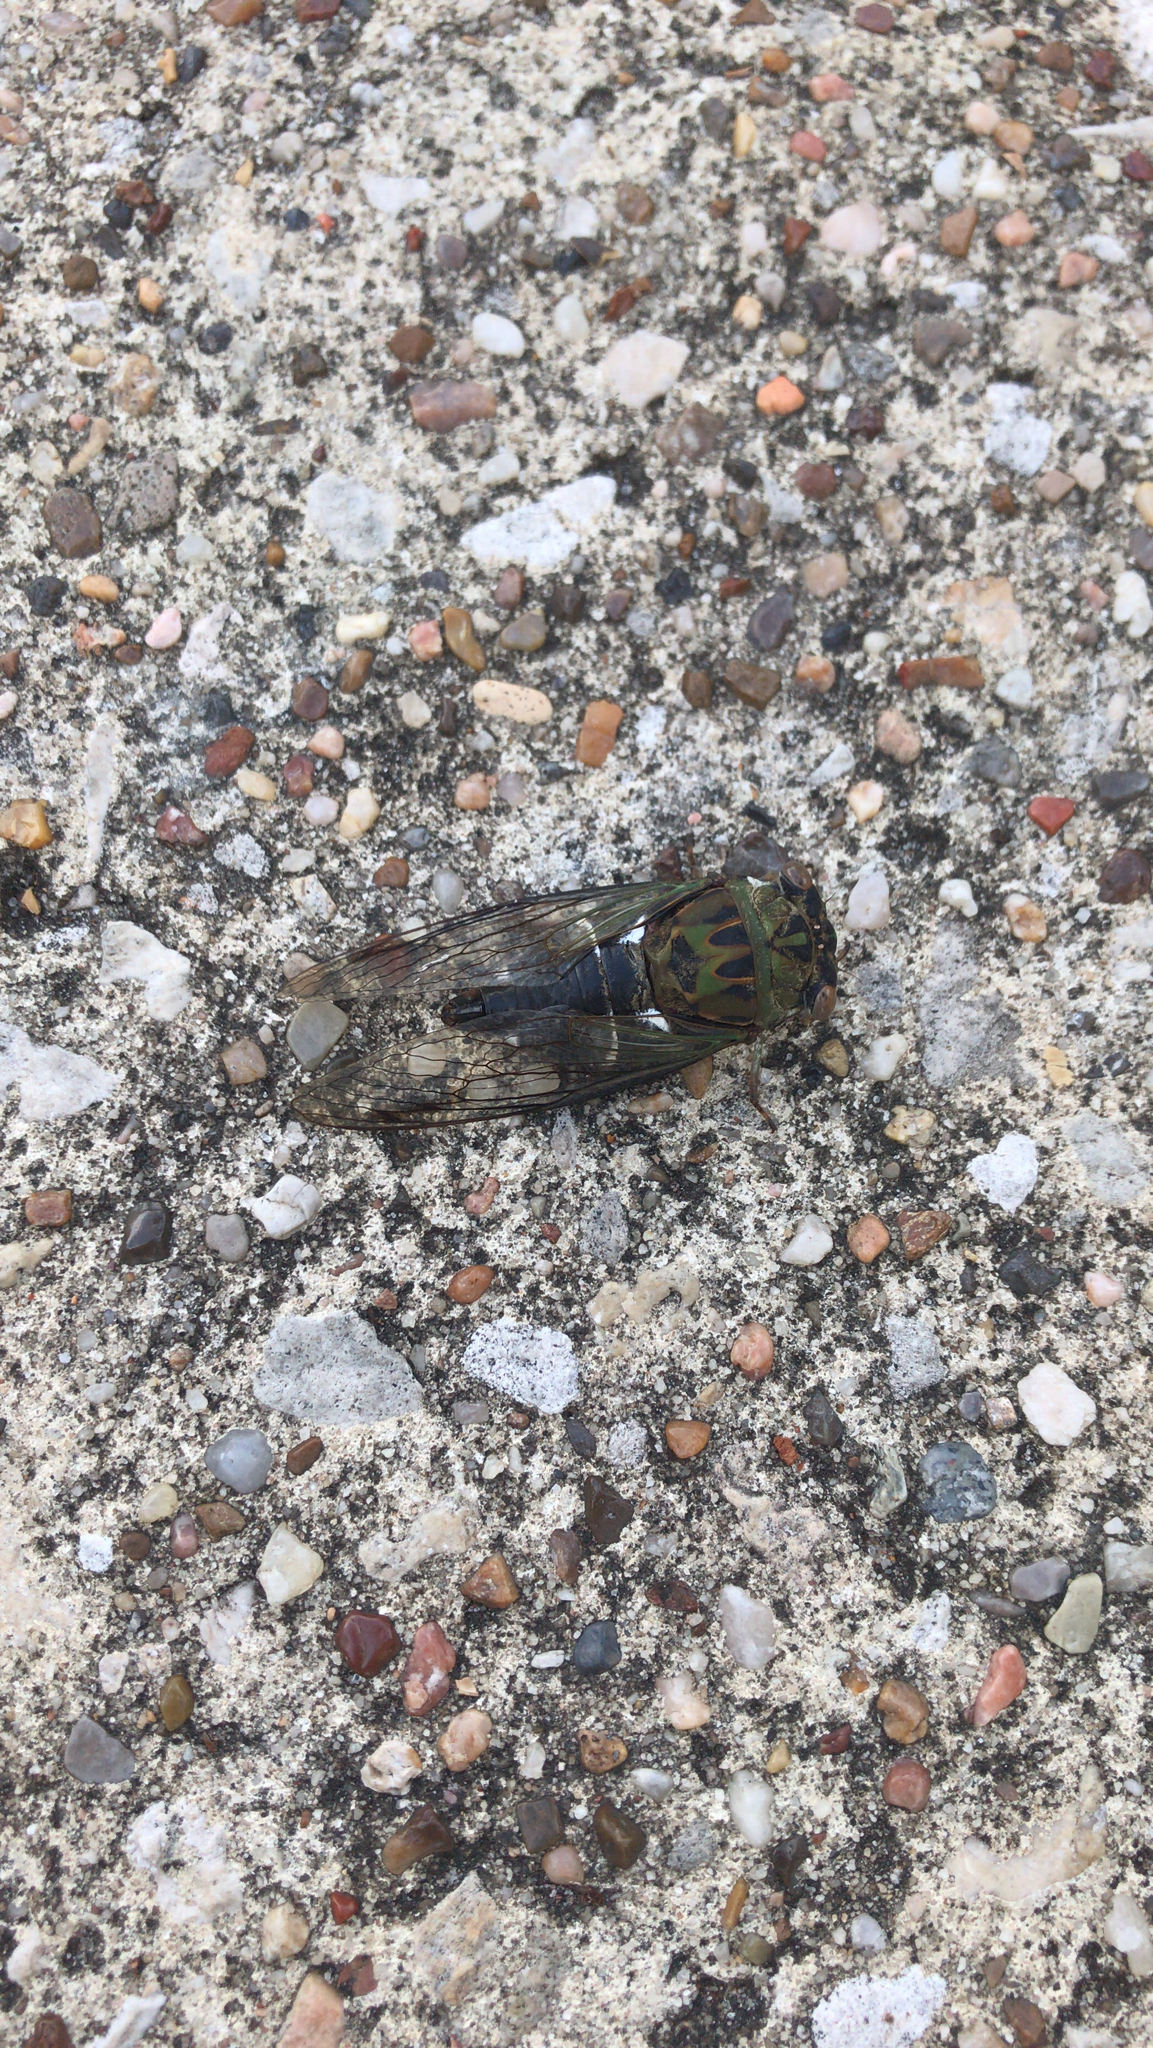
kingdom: Animalia
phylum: Arthropoda
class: Insecta
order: Hemiptera
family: Cicadidae
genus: Neotibicen
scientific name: Neotibicen pruinosus
